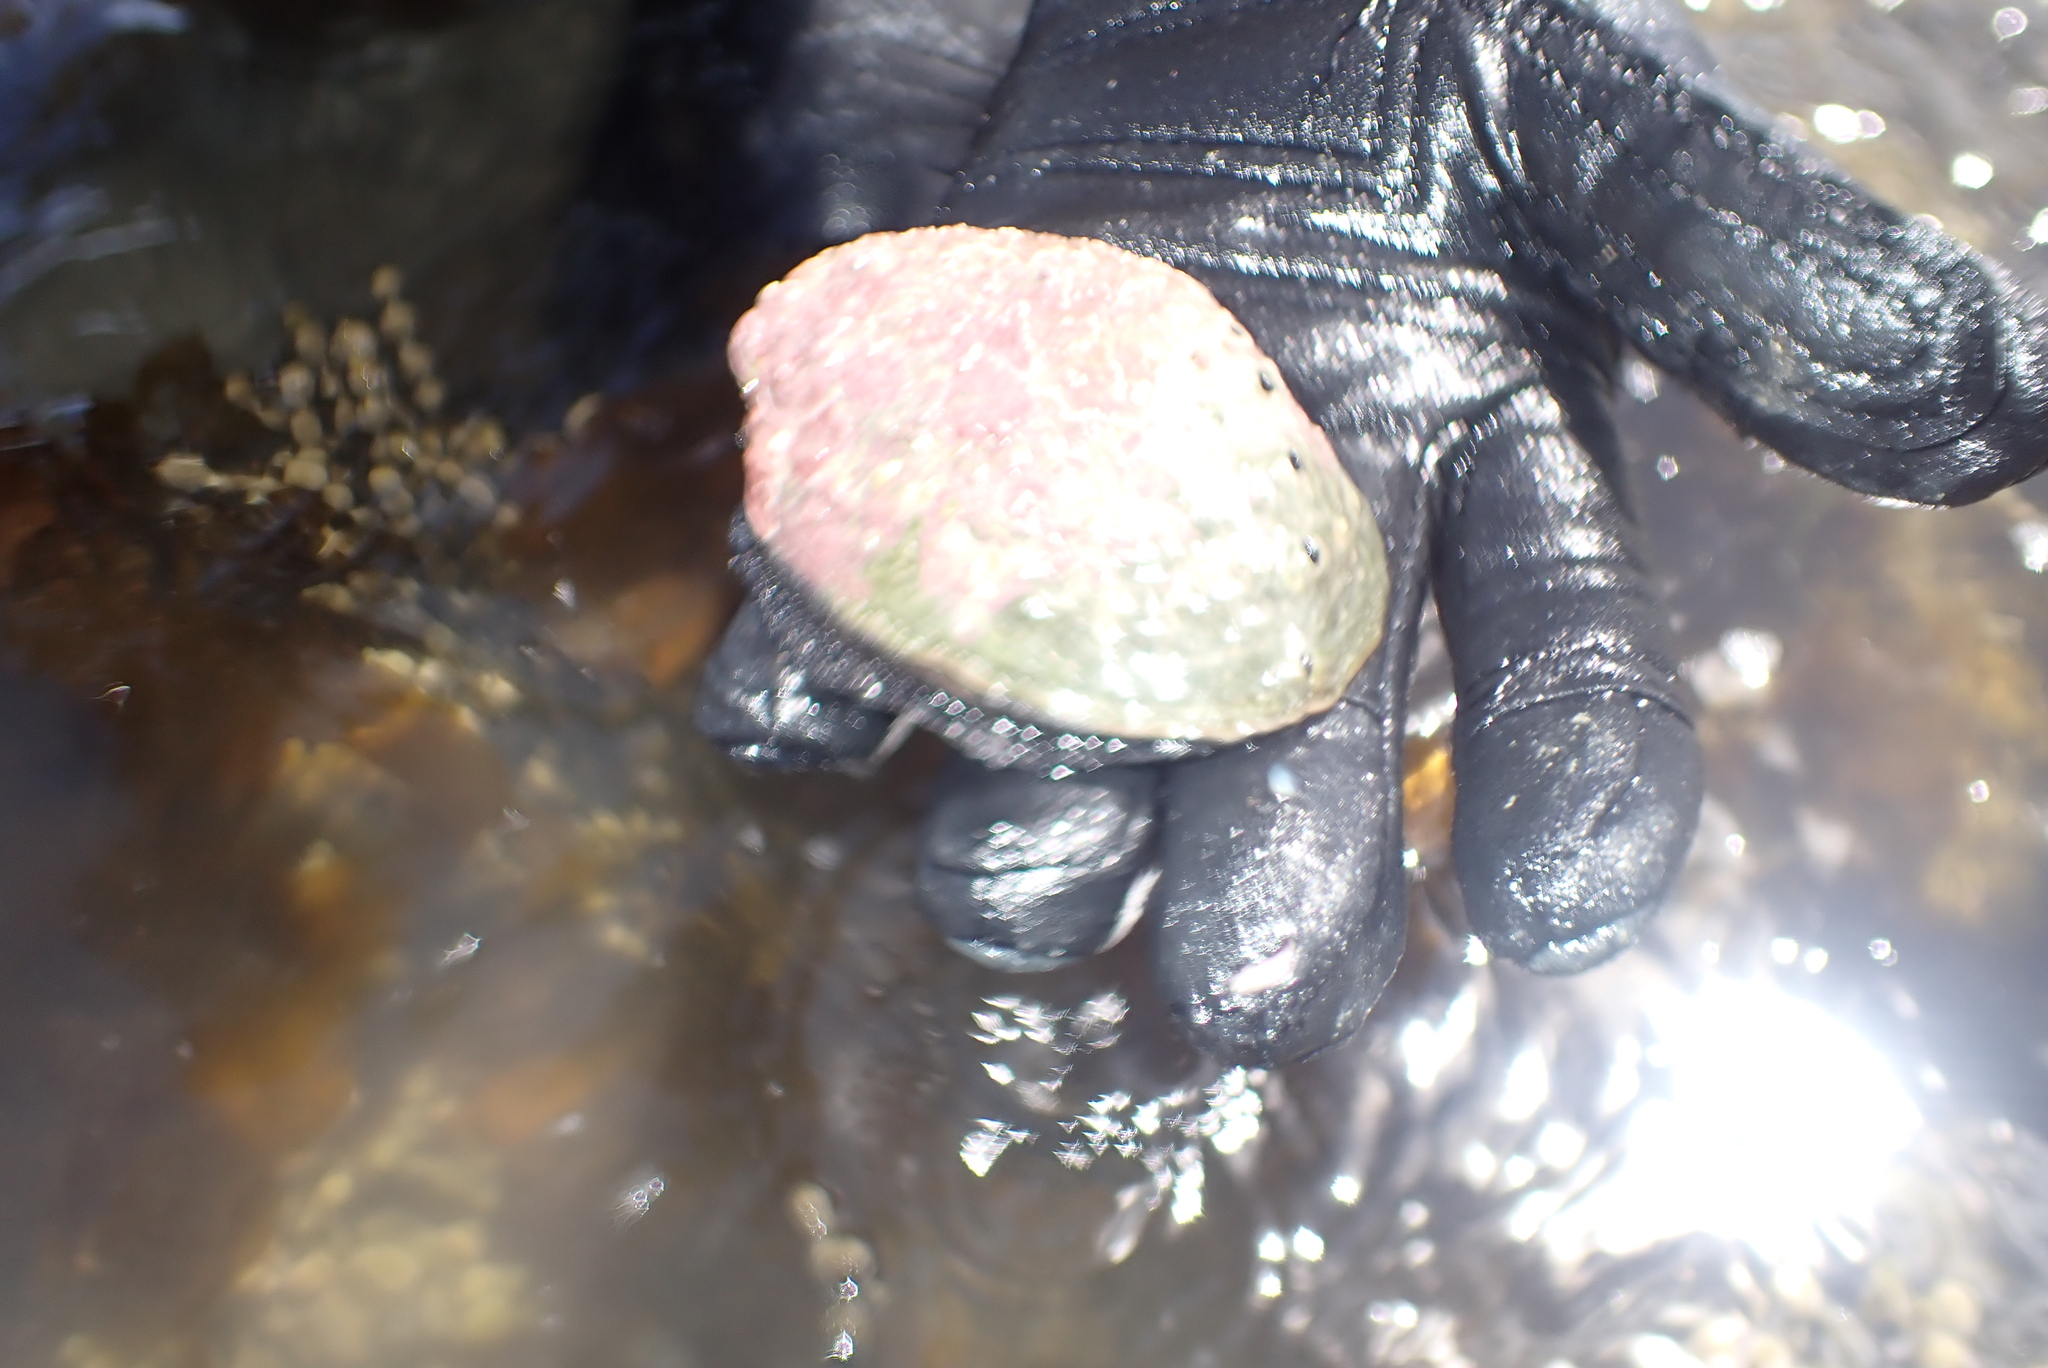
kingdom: Animalia
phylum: Mollusca
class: Gastropoda
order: Lepetellida
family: Haliotidae
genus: Haliotis
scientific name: Haliotis iris
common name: Abalone
